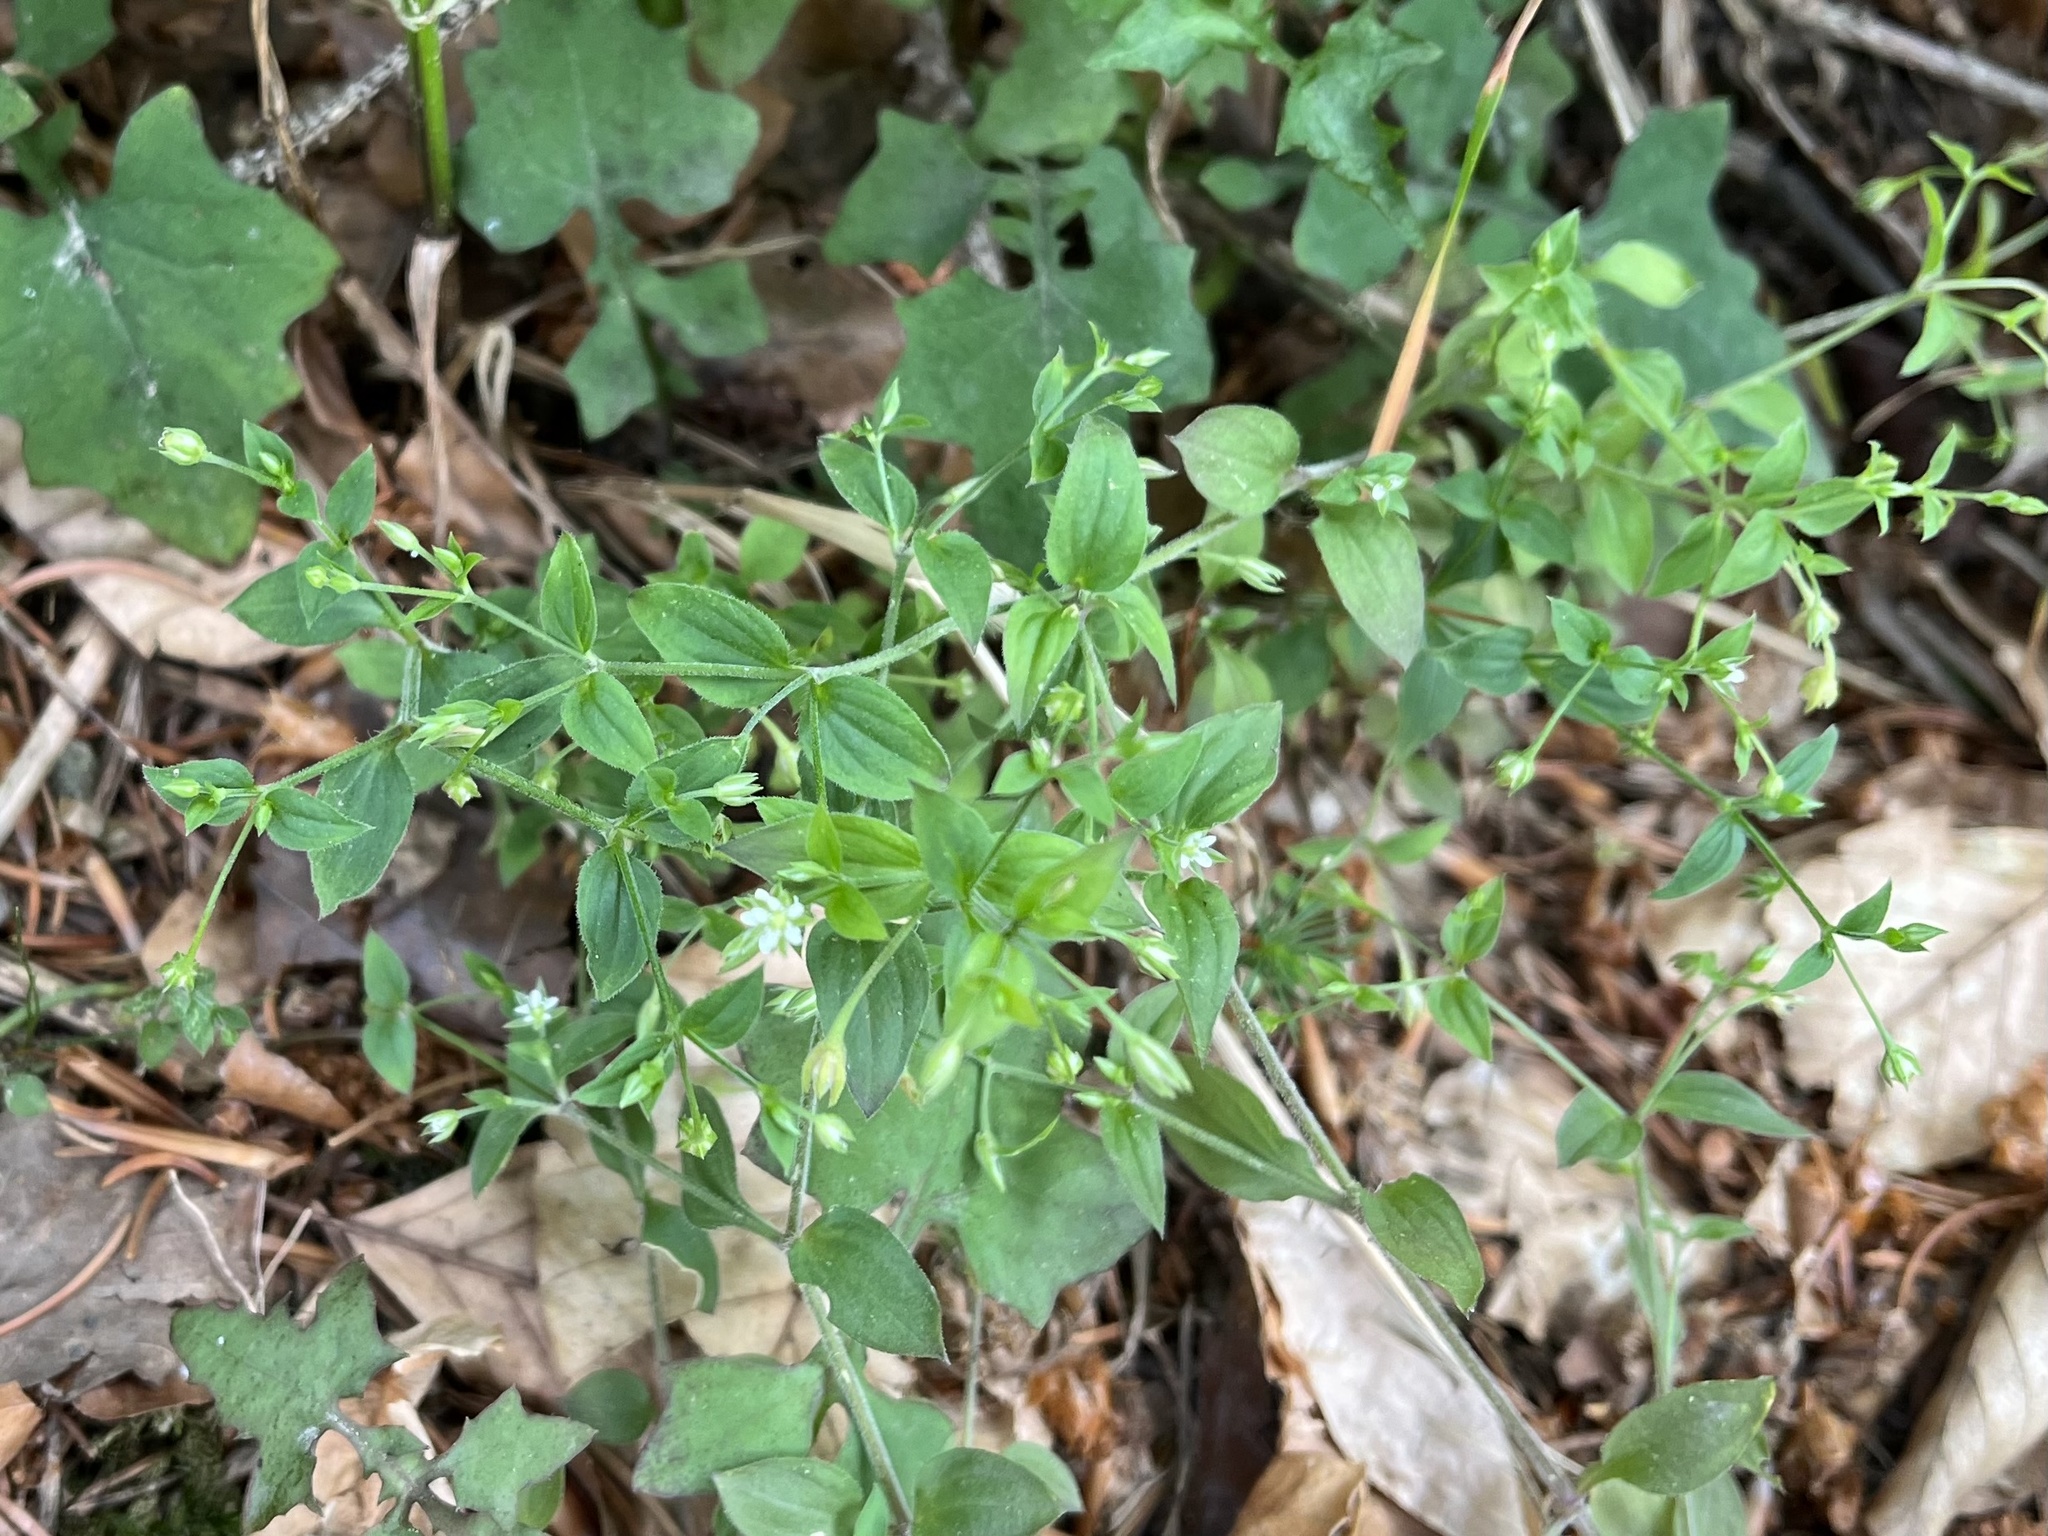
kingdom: Plantae
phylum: Tracheophyta
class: Magnoliopsida
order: Caryophyllales
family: Caryophyllaceae
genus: Moehringia
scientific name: Moehringia trinervia
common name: Three-nerved sandwort
